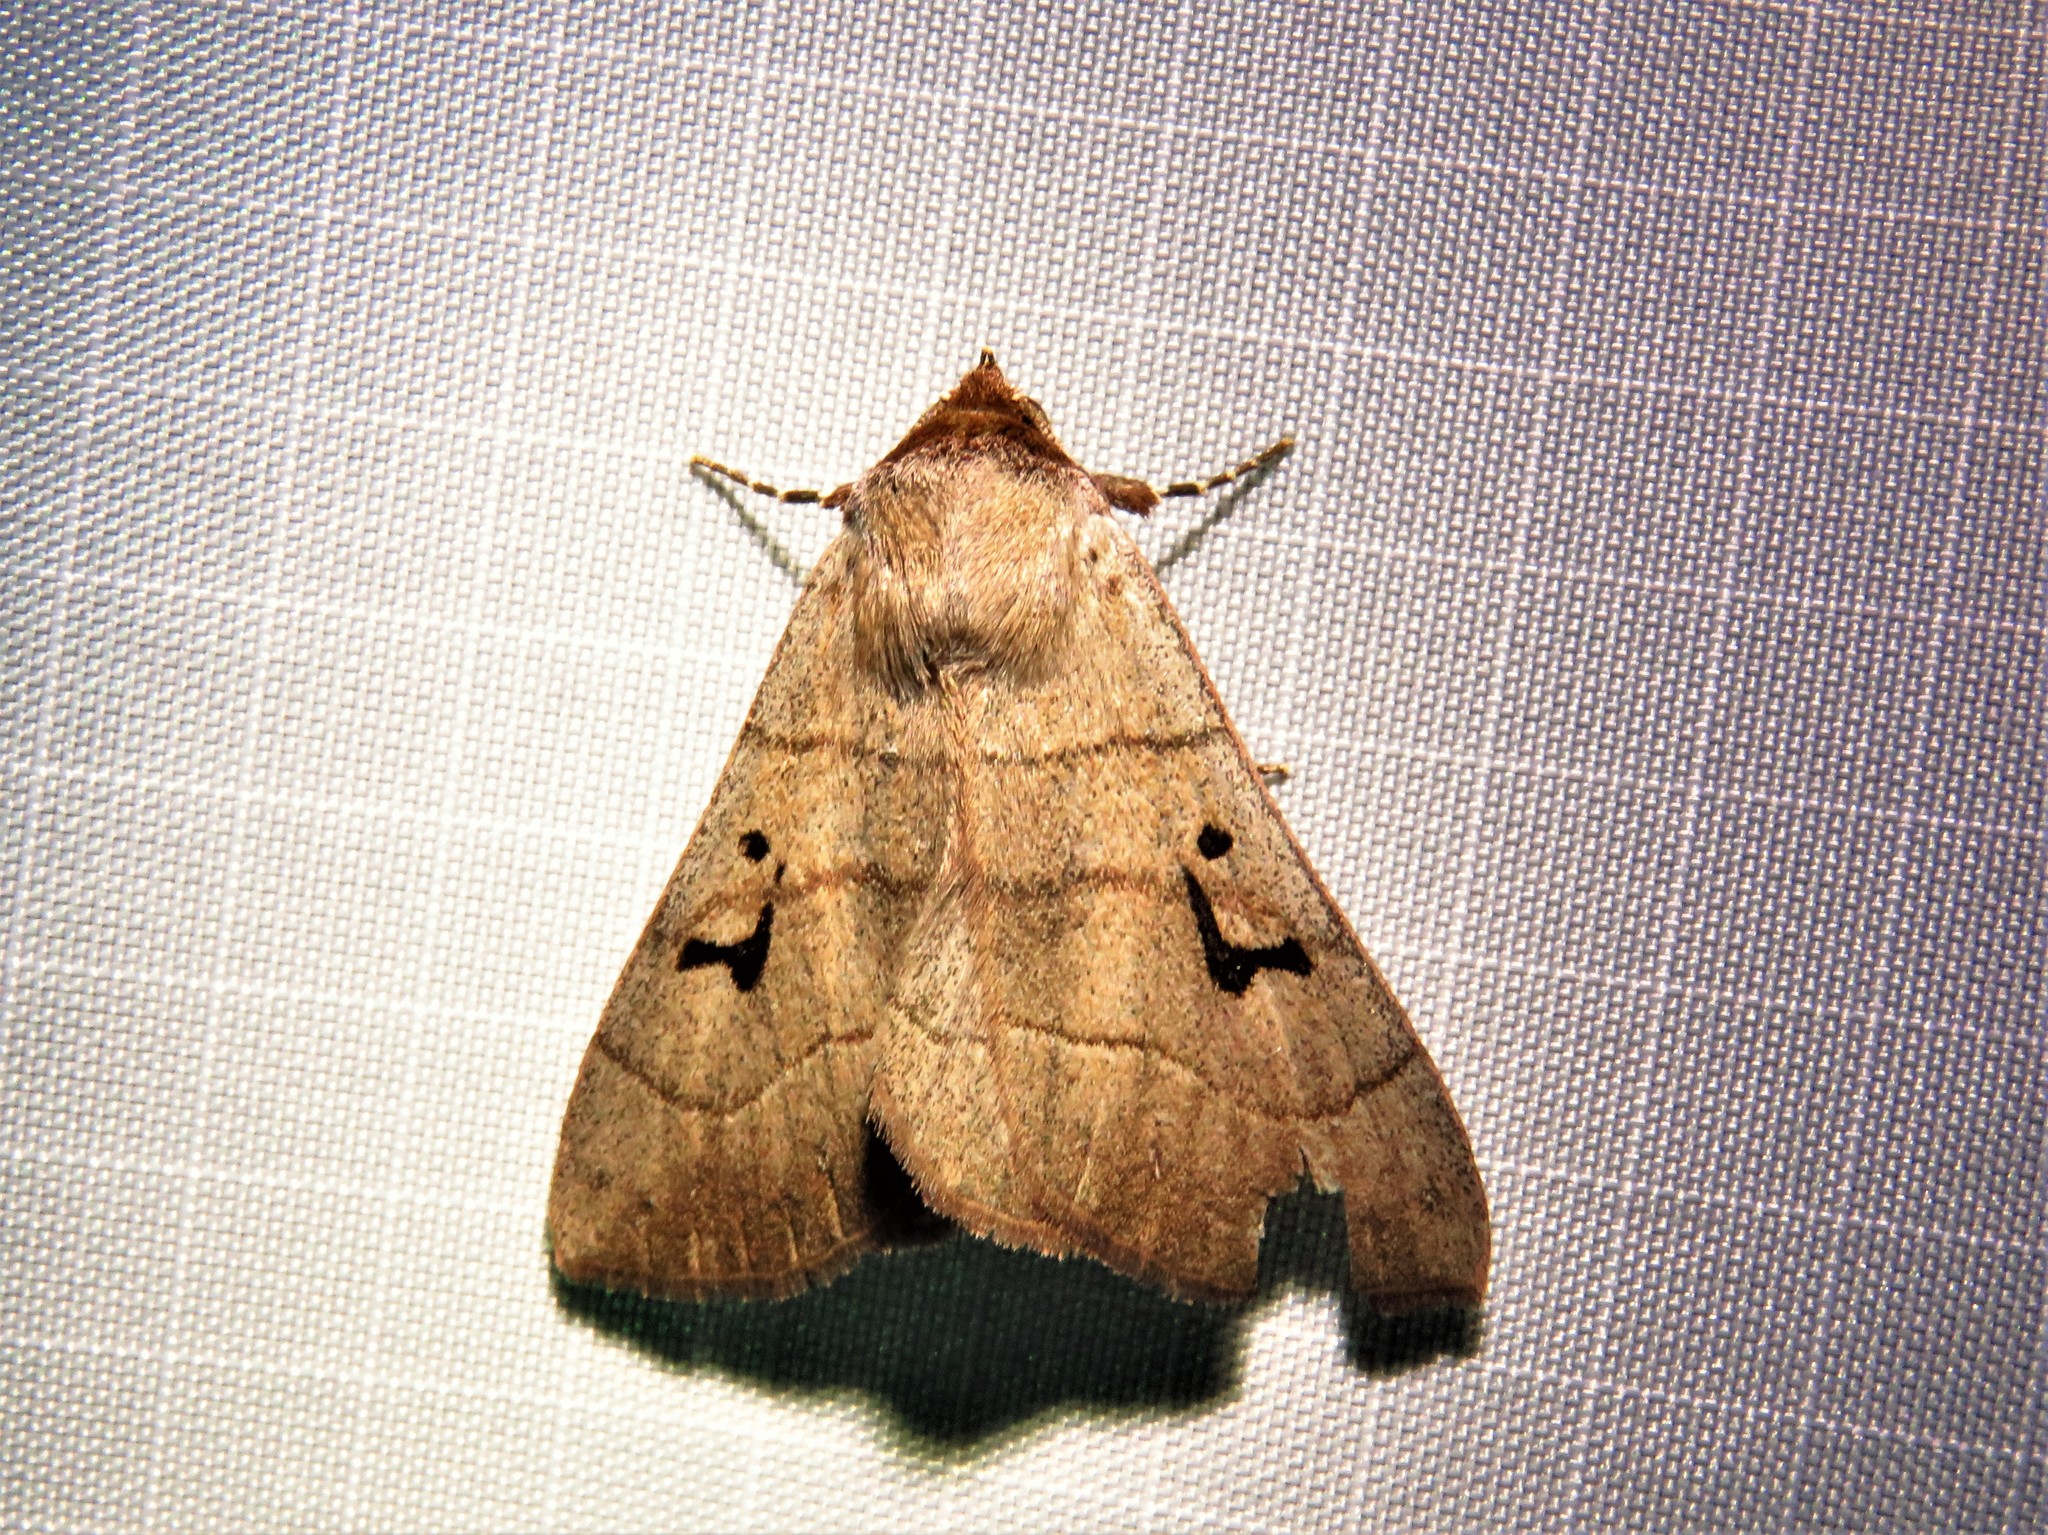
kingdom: Animalia
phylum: Arthropoda
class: Insecta
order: Lepidoptera
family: Erebidae
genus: Panopoda
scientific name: Panopoda carneicosta
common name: Brown panopoda moth
